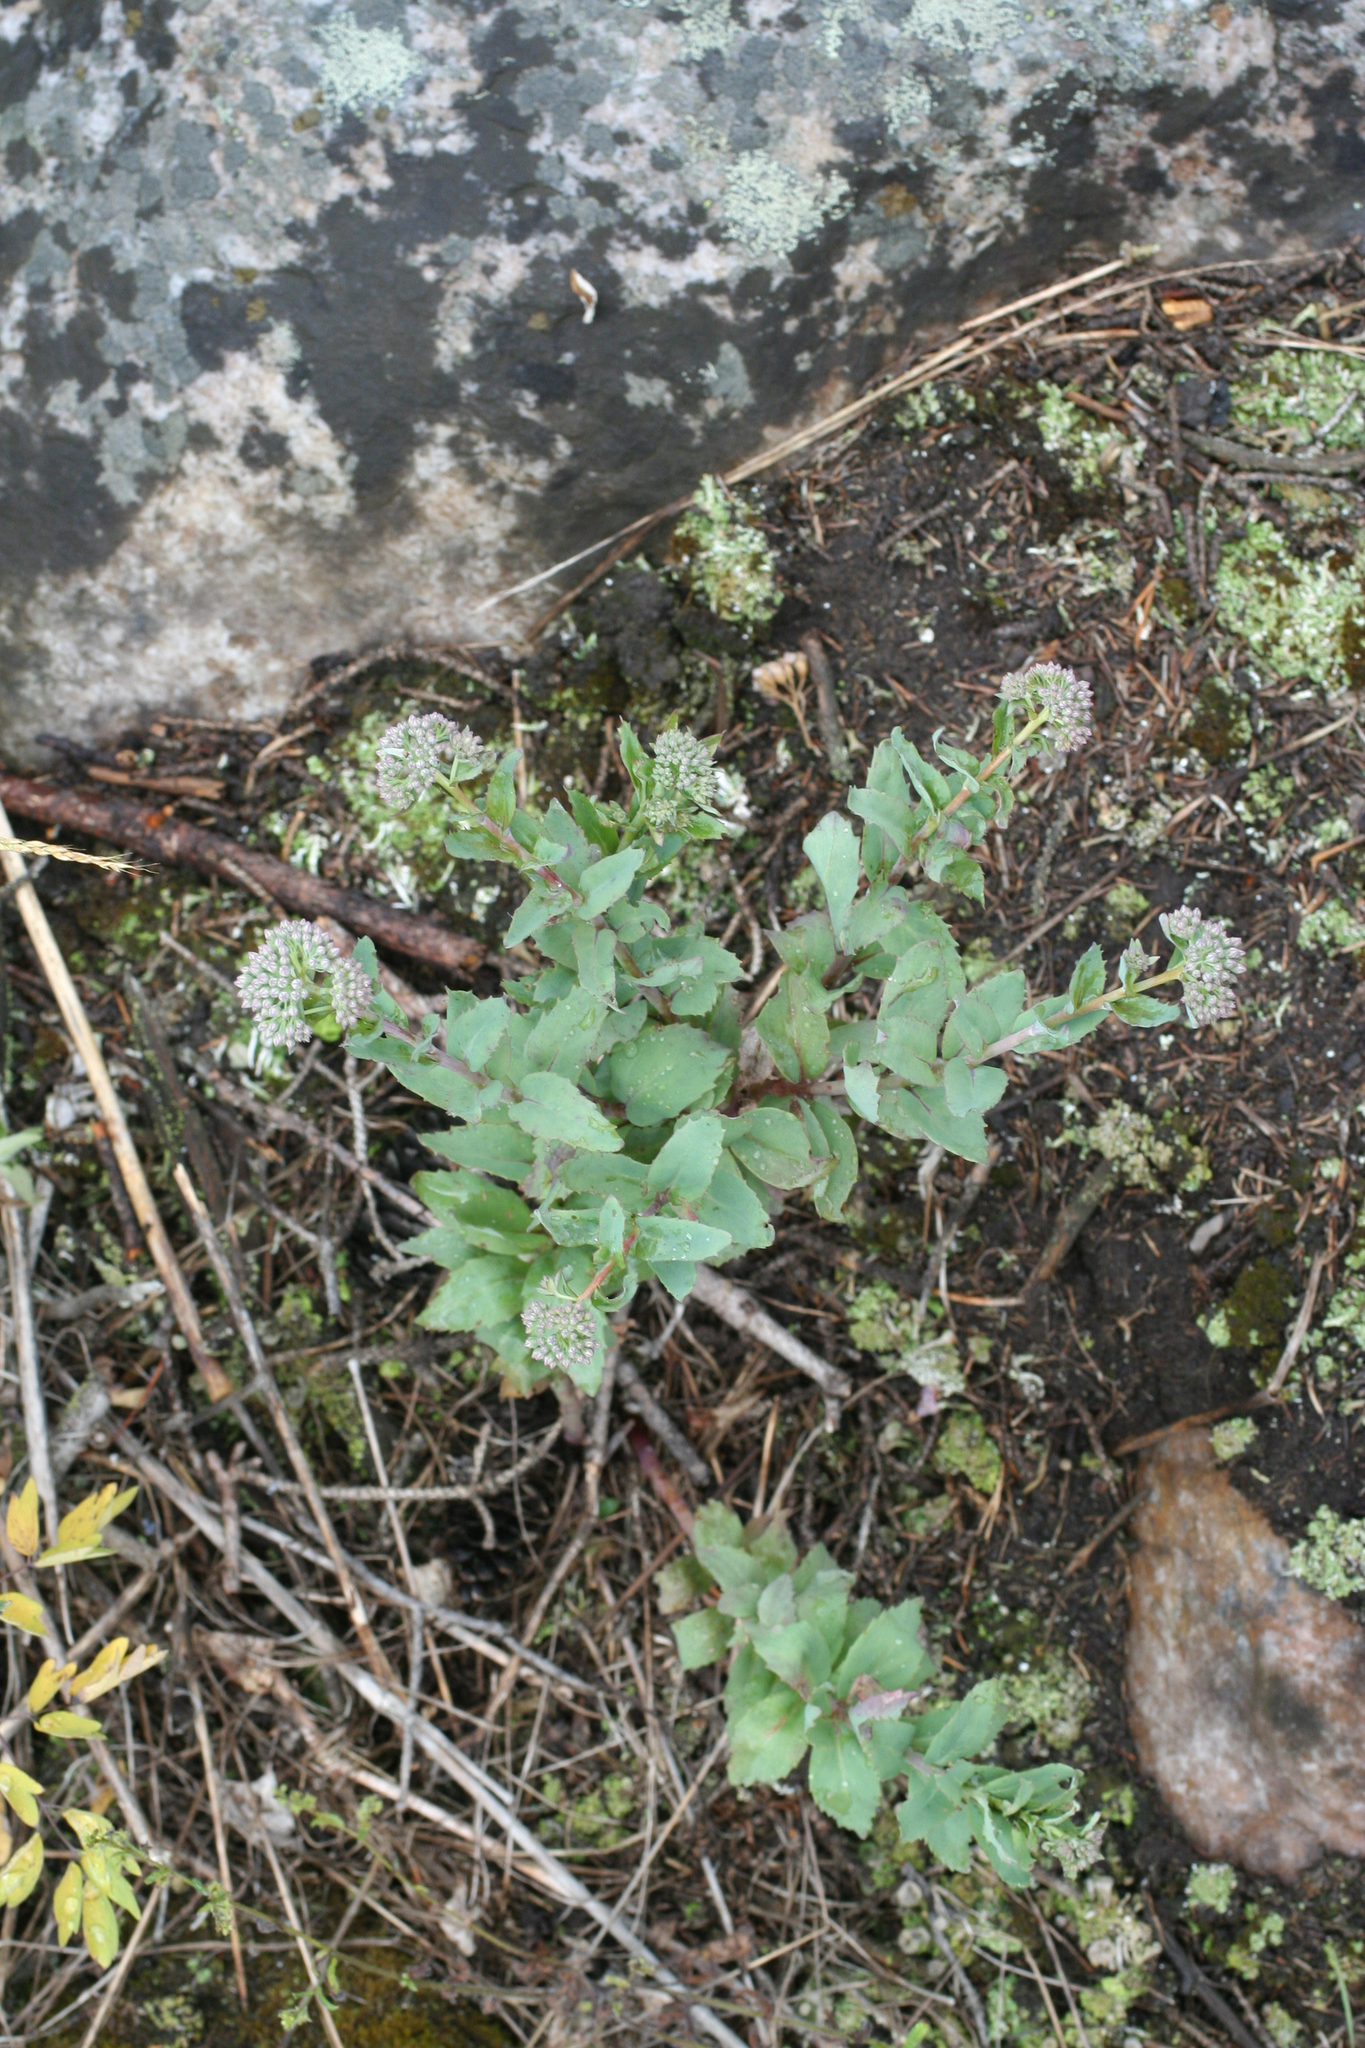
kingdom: Plantae
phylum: Tracheophyta
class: Magnoliopsida
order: Saxifragales
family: Crassulaceae
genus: Hylotelephium
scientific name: Hylotelephium telephium
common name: Live-forever
